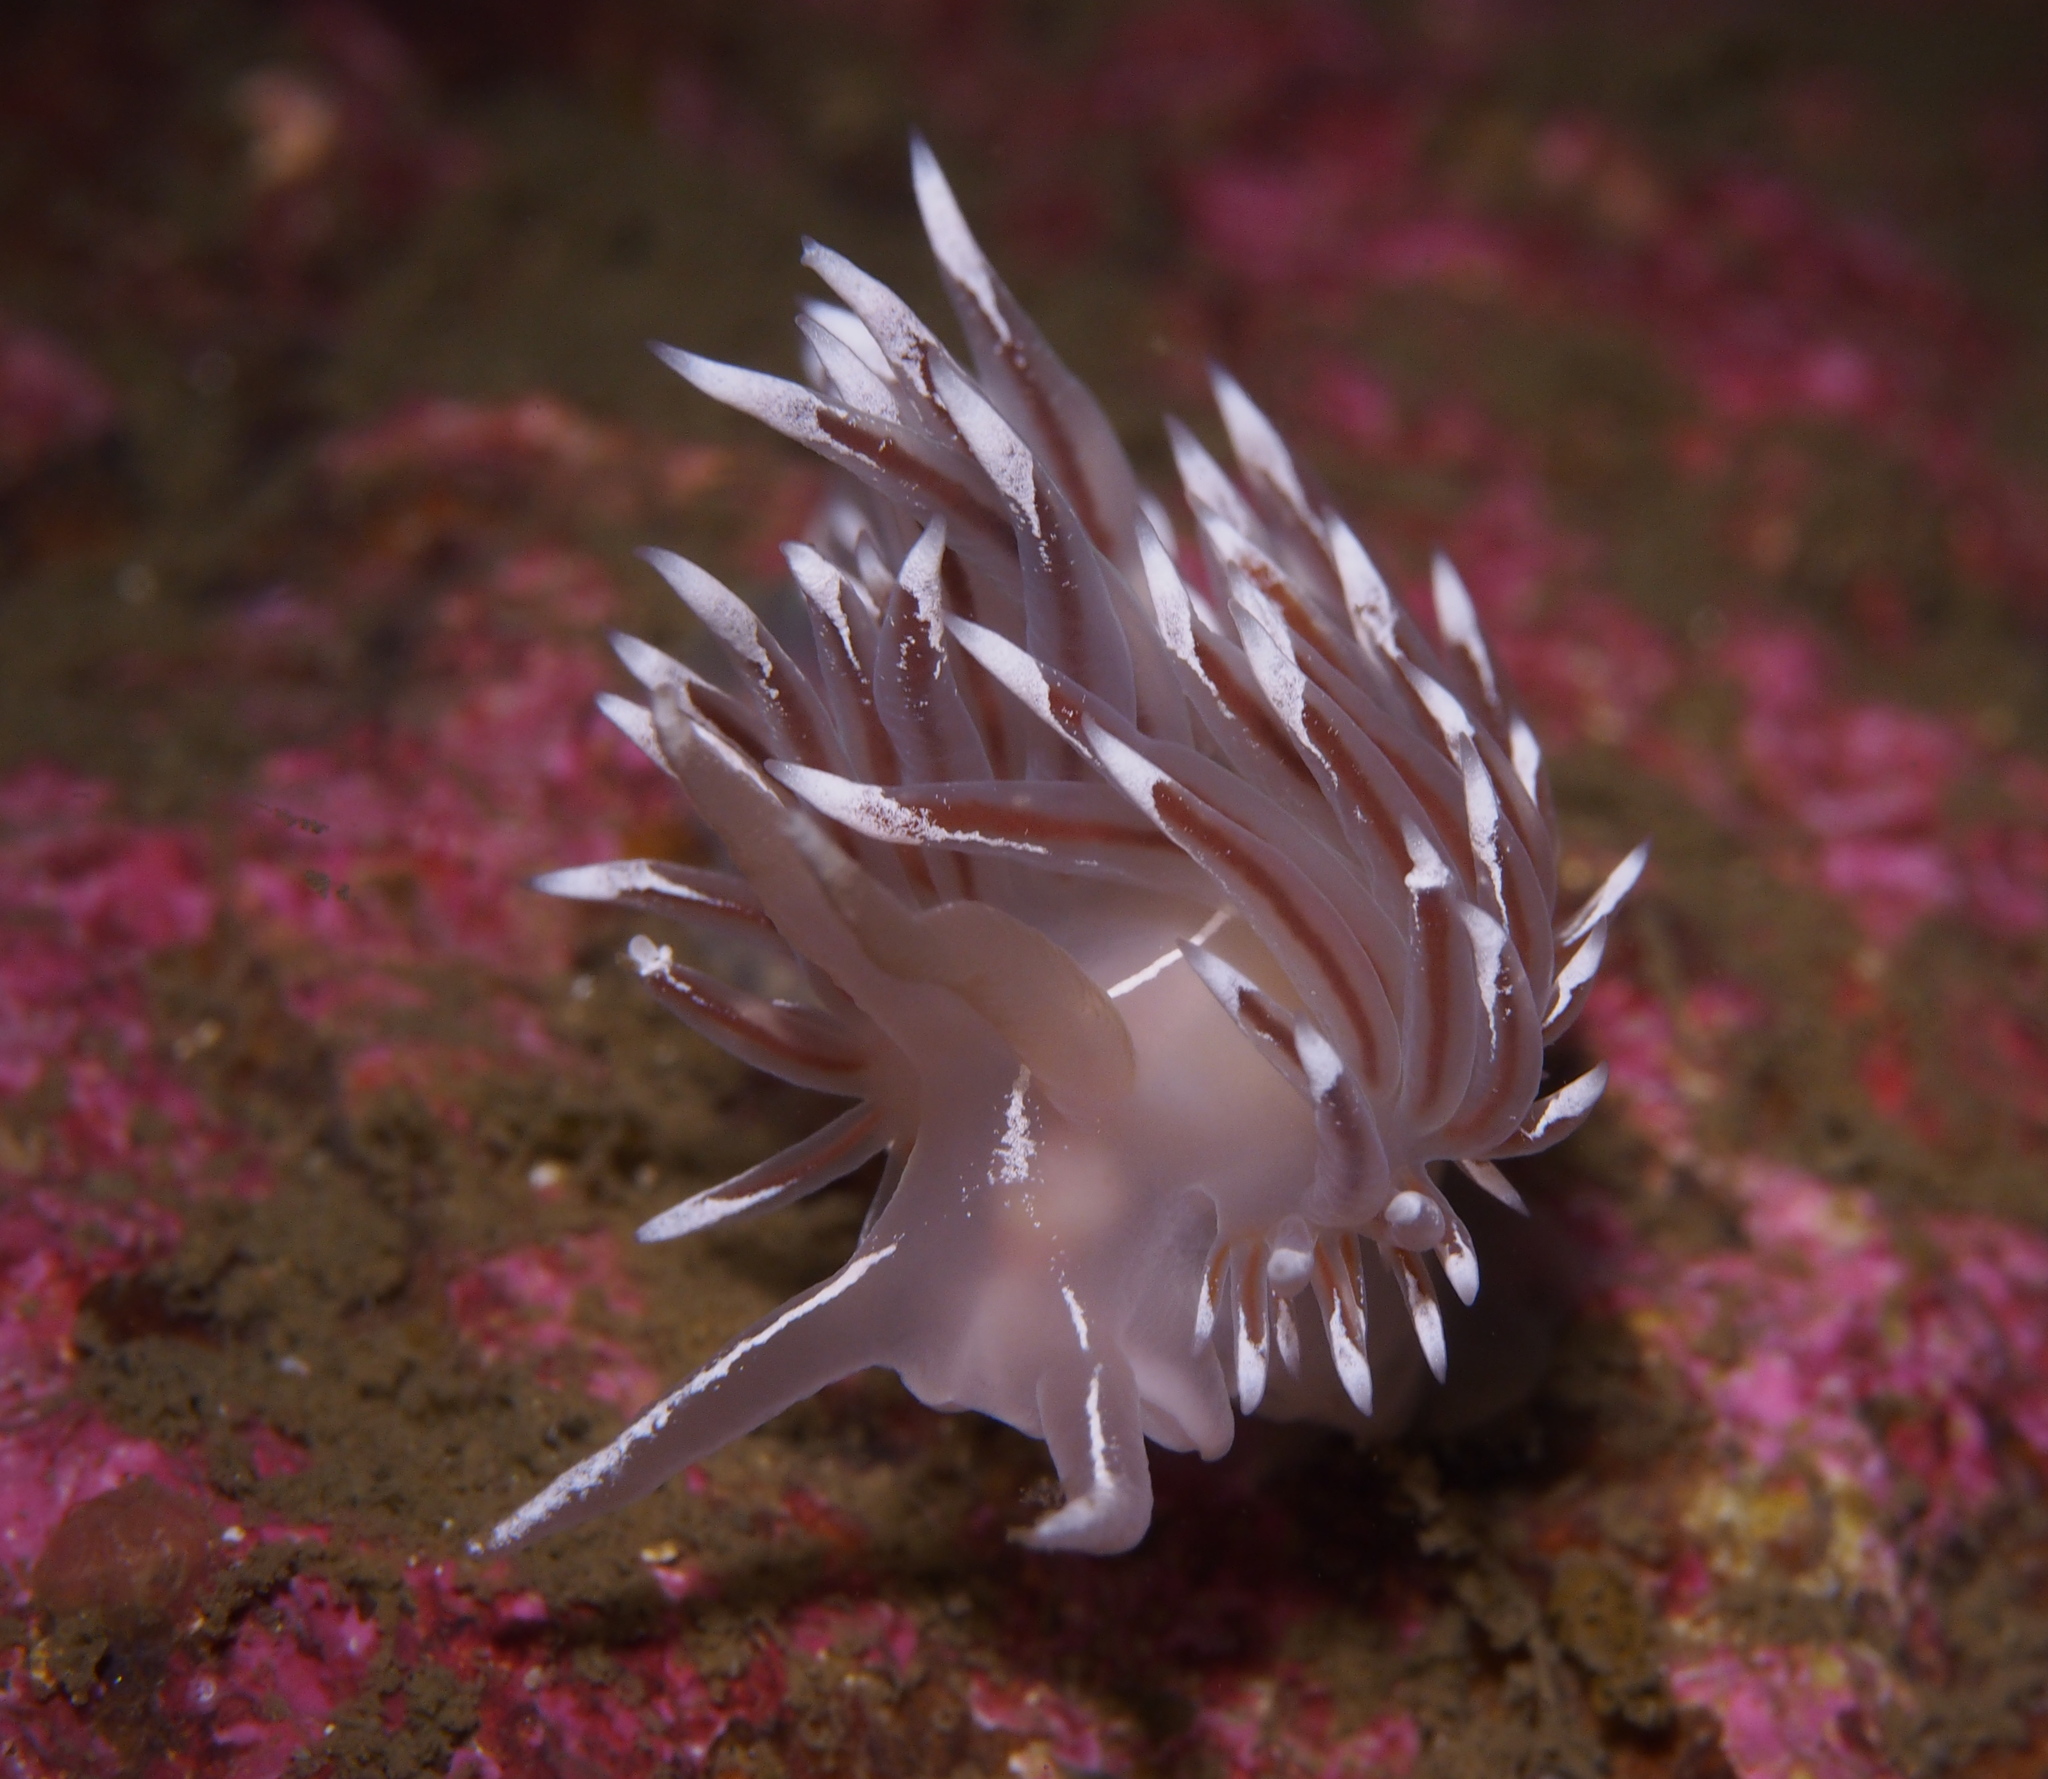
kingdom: Animalia
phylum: Mollusca
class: Gastropoda
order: Nudibranchia
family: Coryphellidae
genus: Coryphella
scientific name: Coryphella lineata
